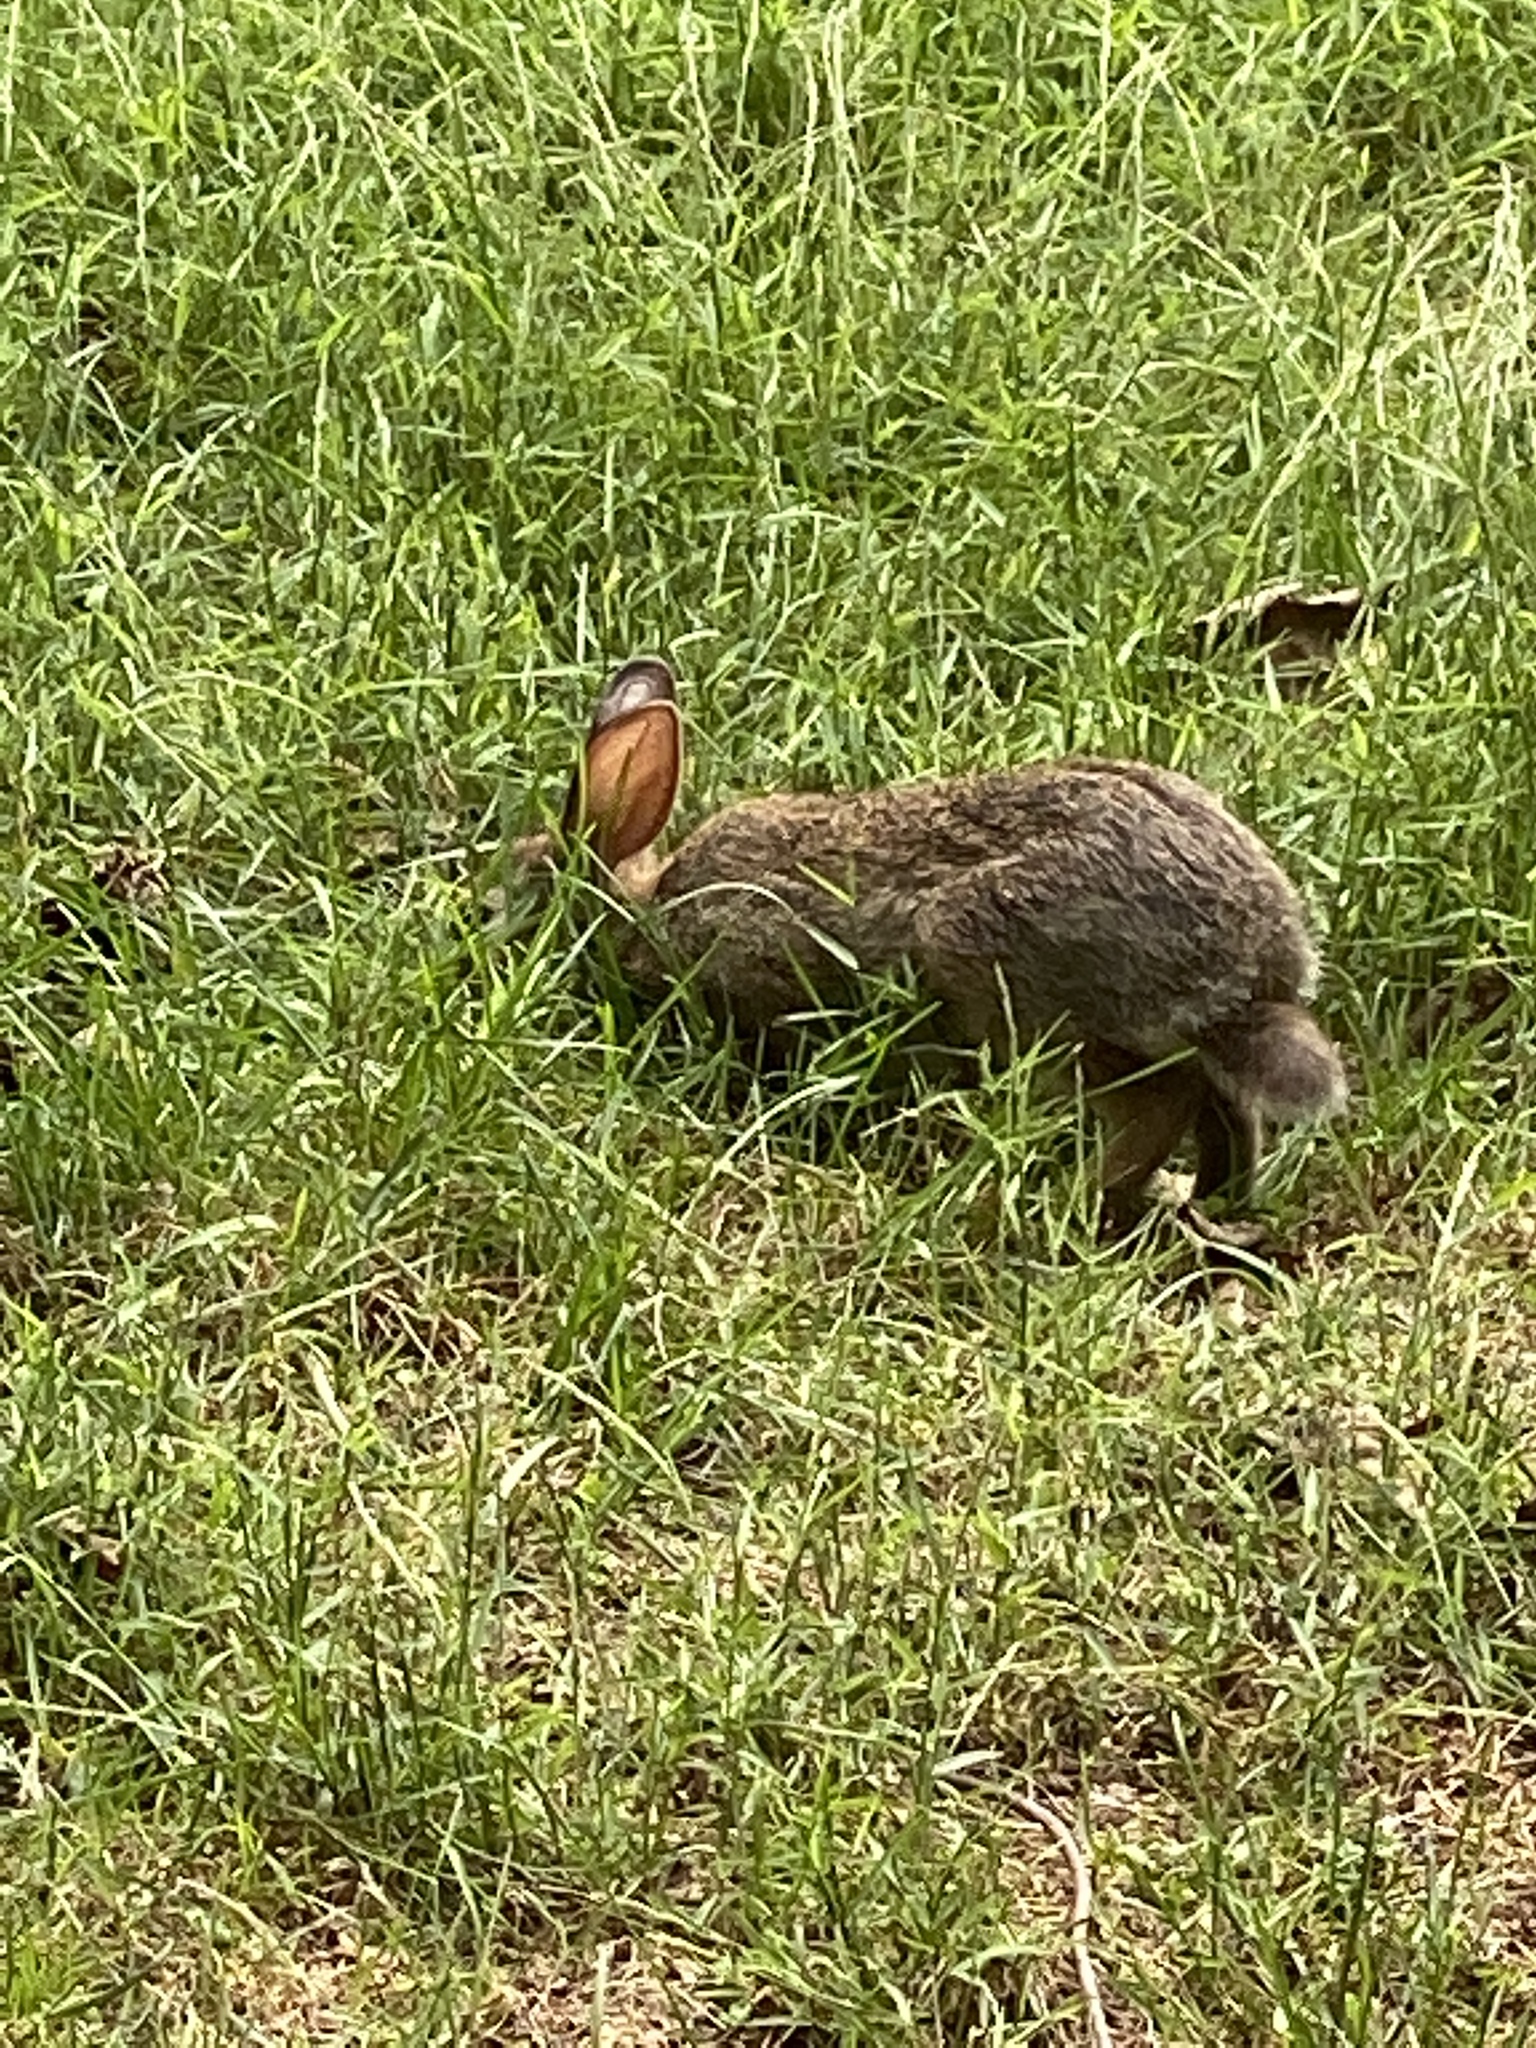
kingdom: Animalia
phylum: Chordata
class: Mammalia
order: Lagomorpha
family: Leporidae
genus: Sylvilagus
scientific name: Sylvilagus floridanus
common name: Eastern cottontail
